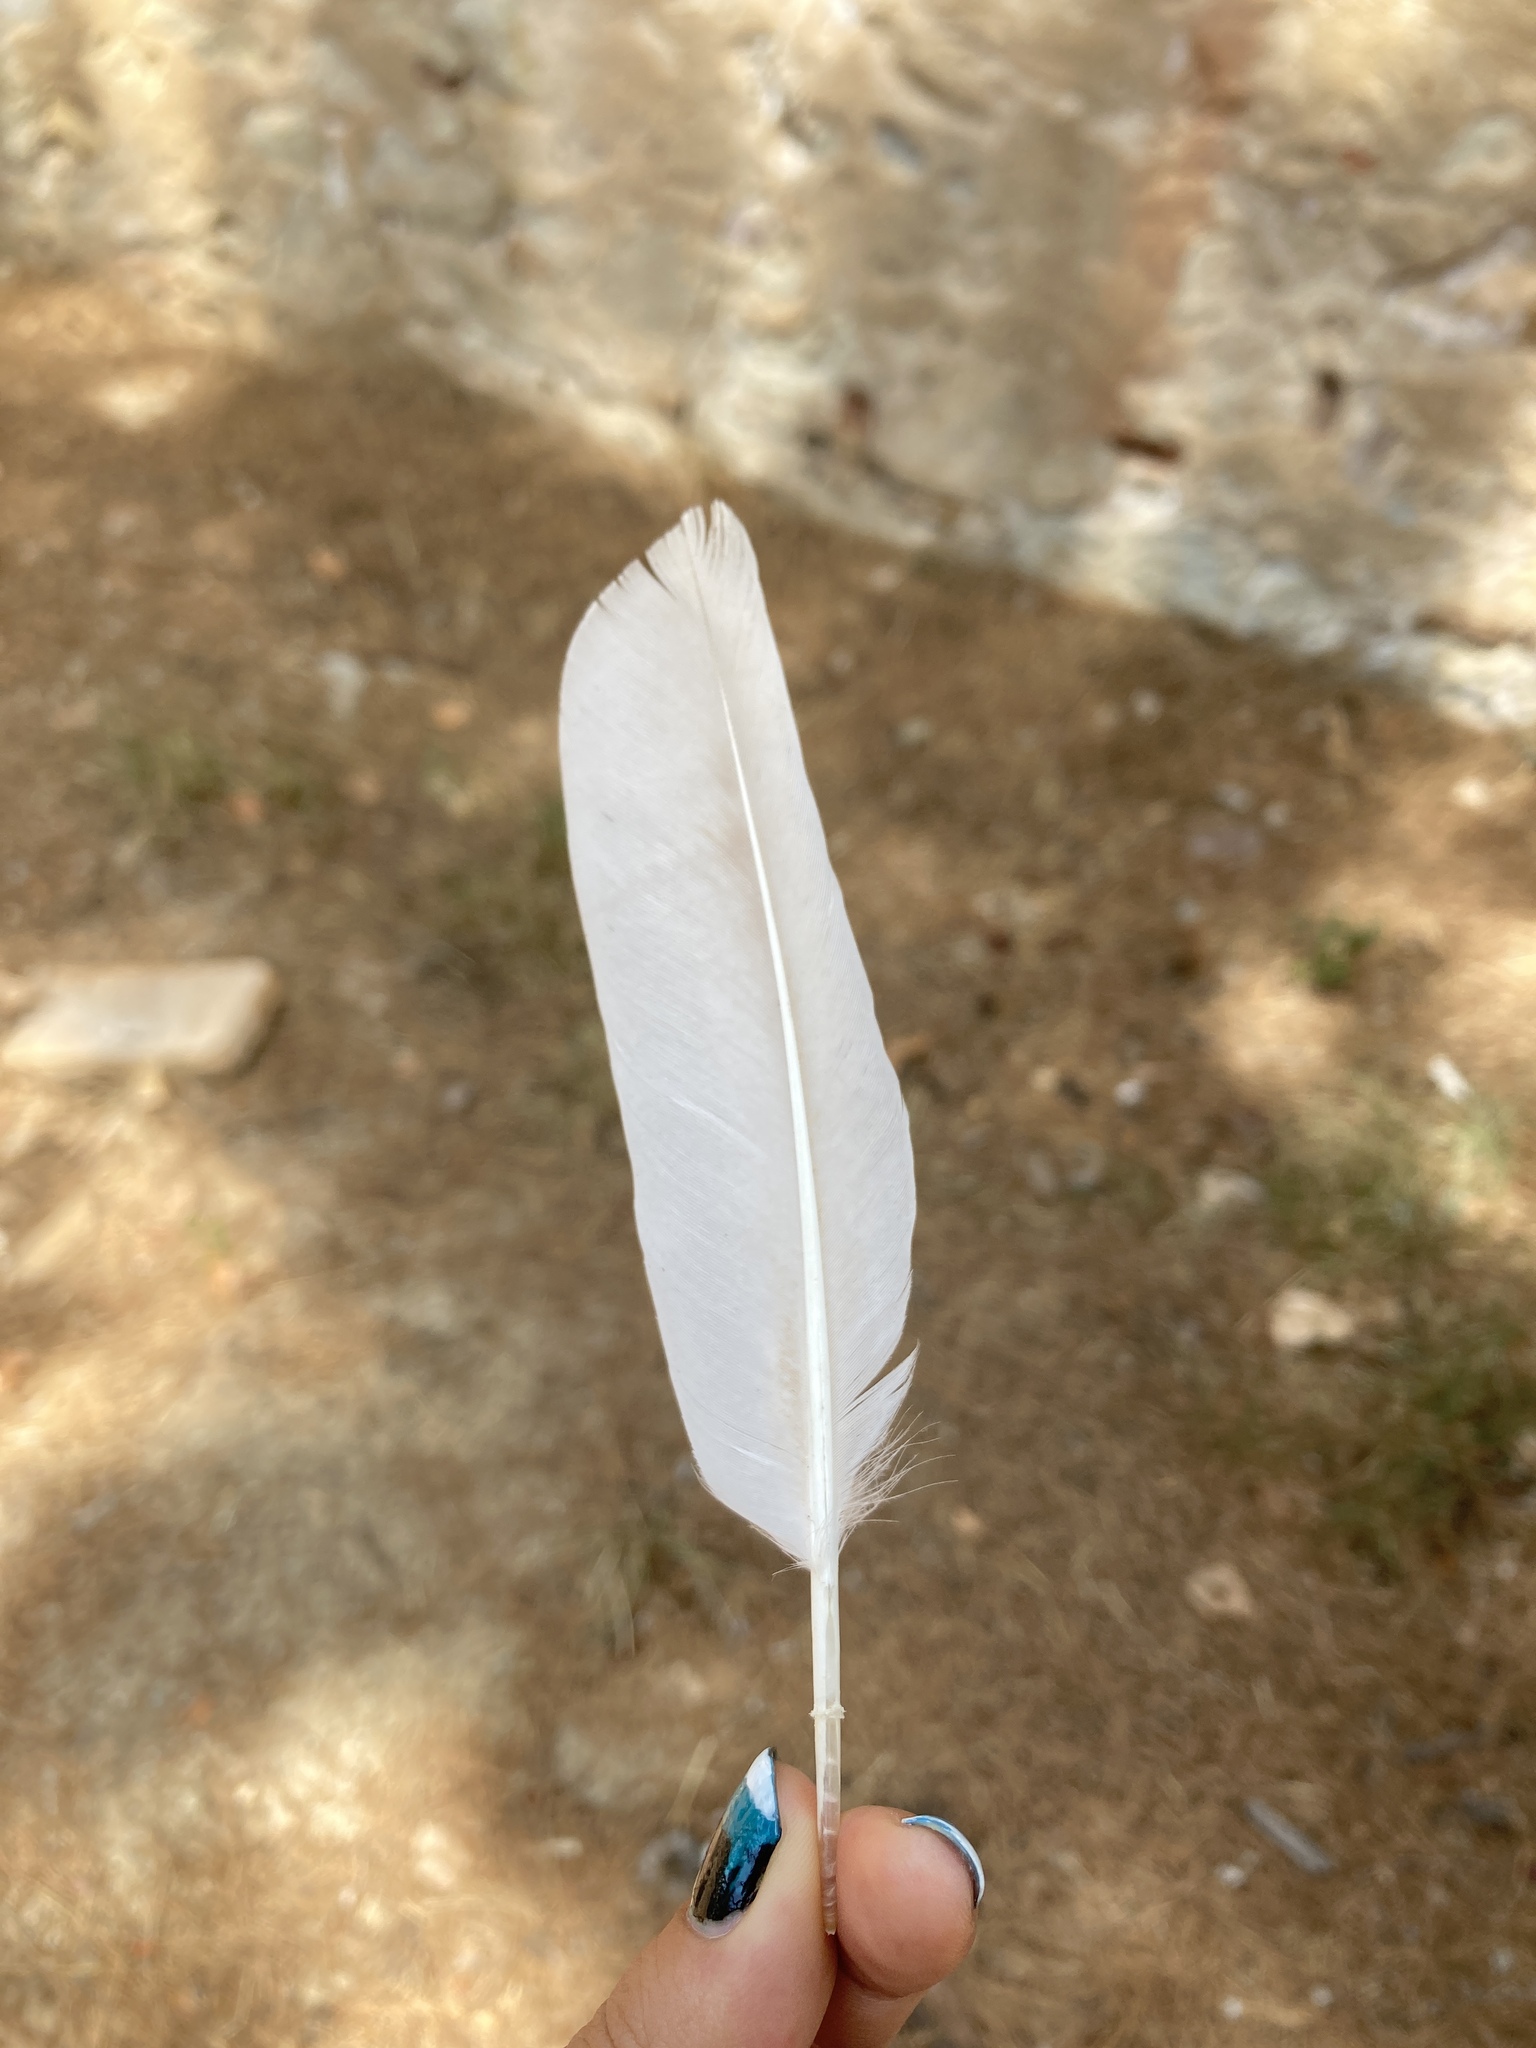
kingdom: Animalia
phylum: Chordata
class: Aves
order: Columbiformes
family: Columbidae
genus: Columba
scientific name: Columba livia
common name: Rock pigeon
